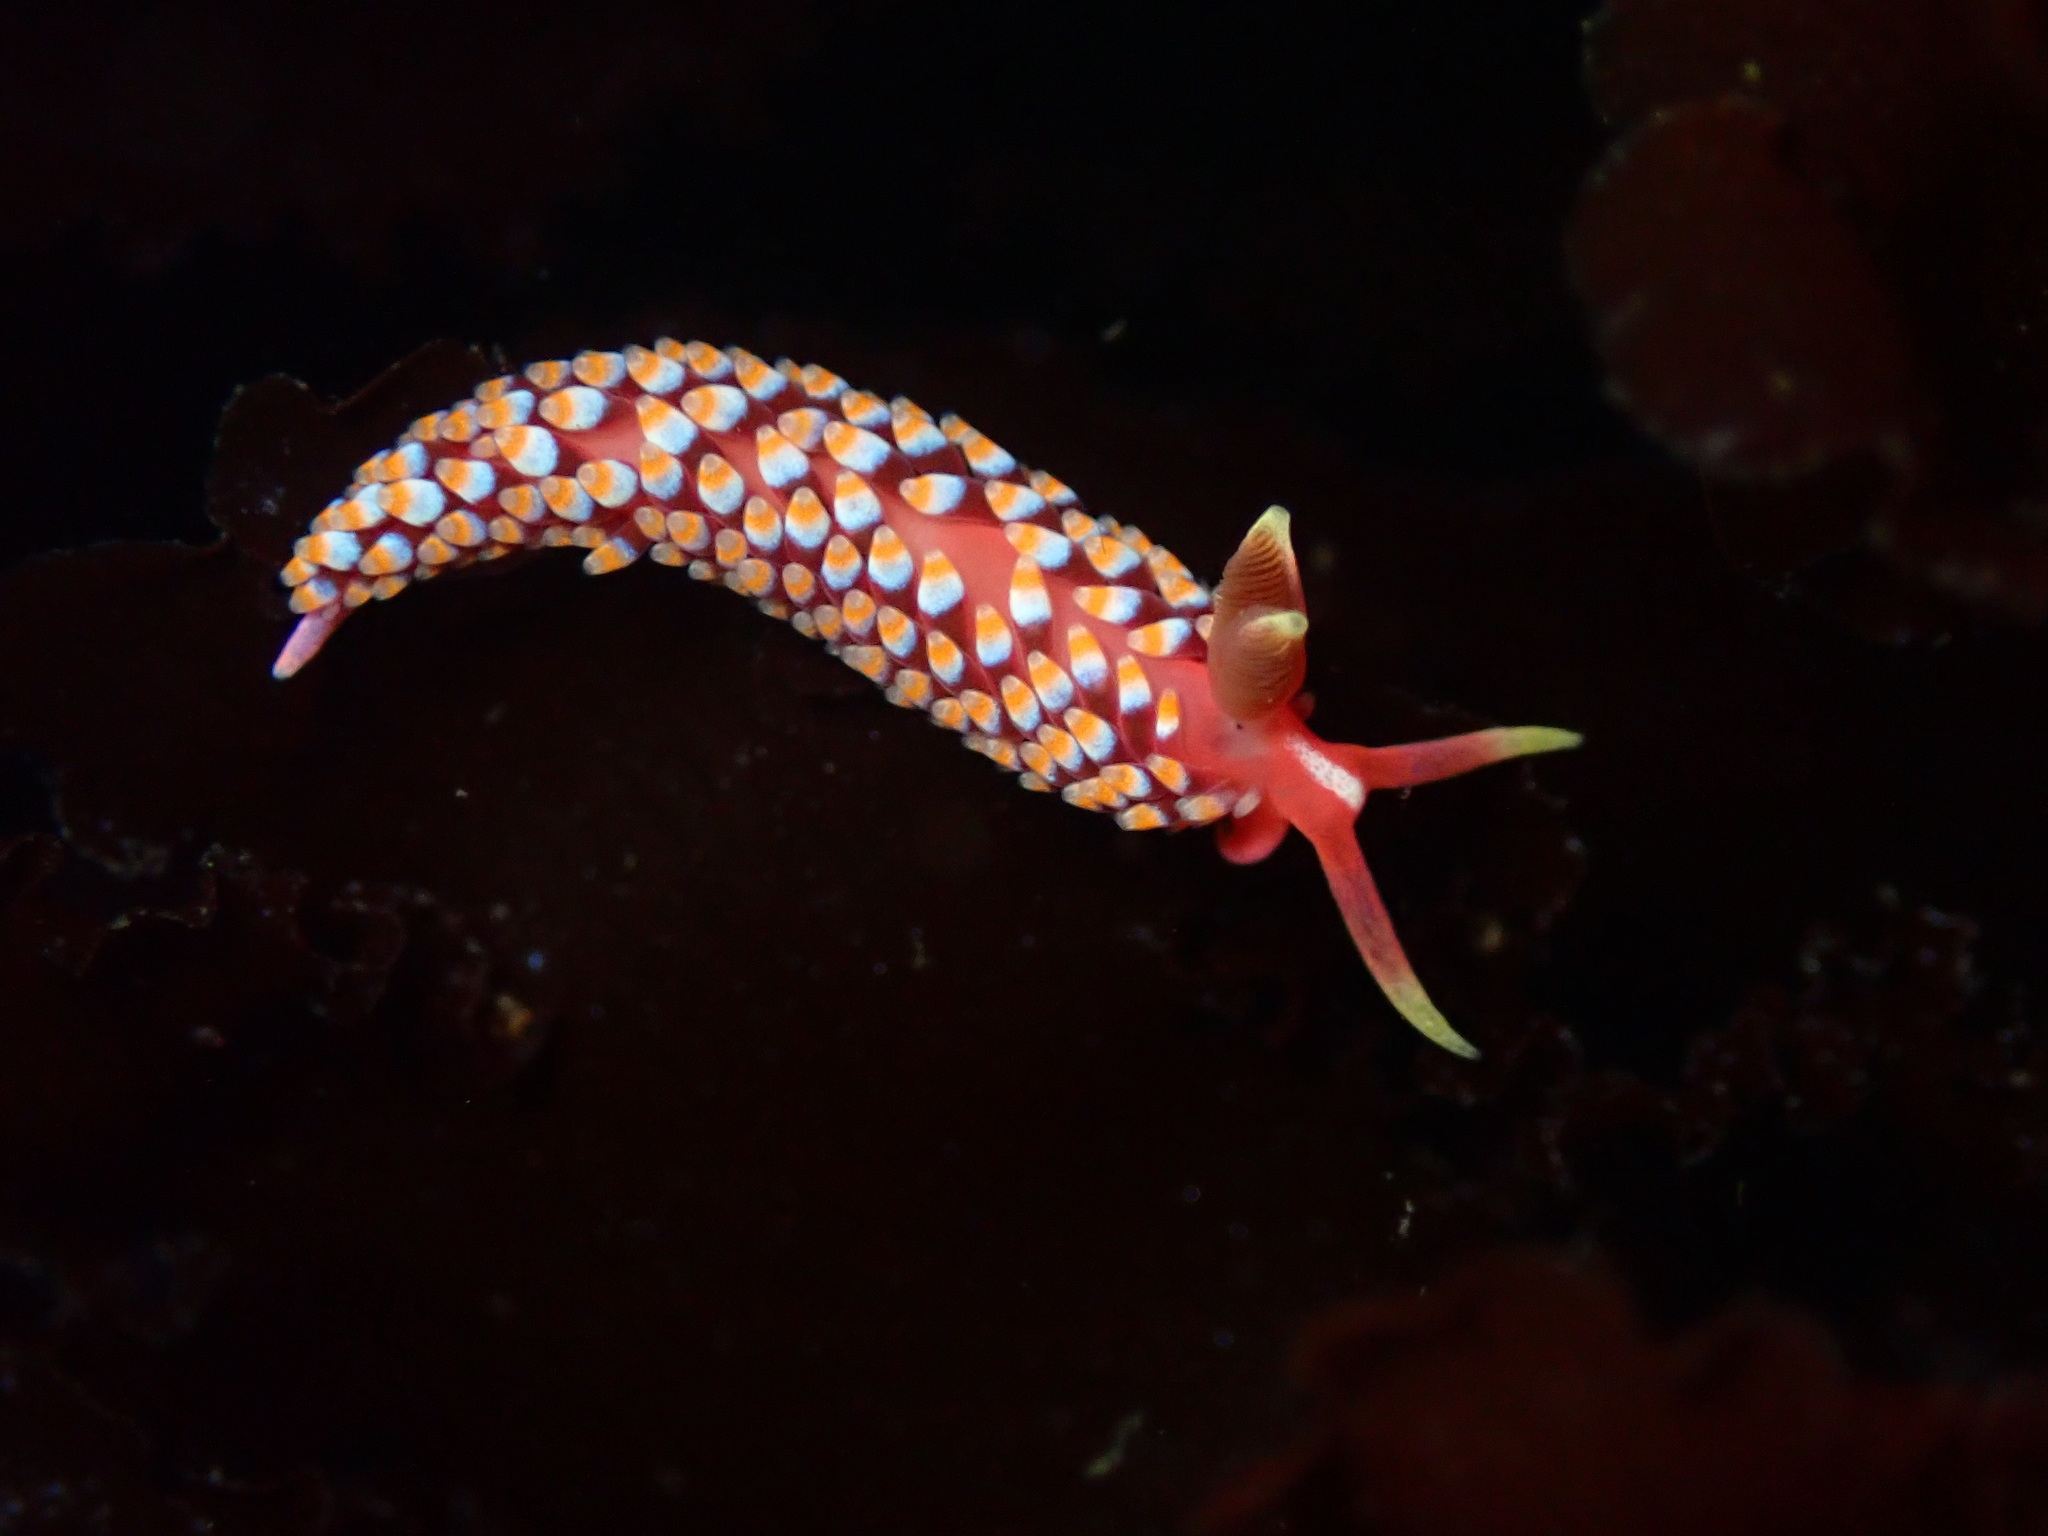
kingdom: Animalia
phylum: Mollusca
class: Gastropoda
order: Nudibranchia
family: Babakinidae
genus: Babakina
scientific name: Babakina festiva
